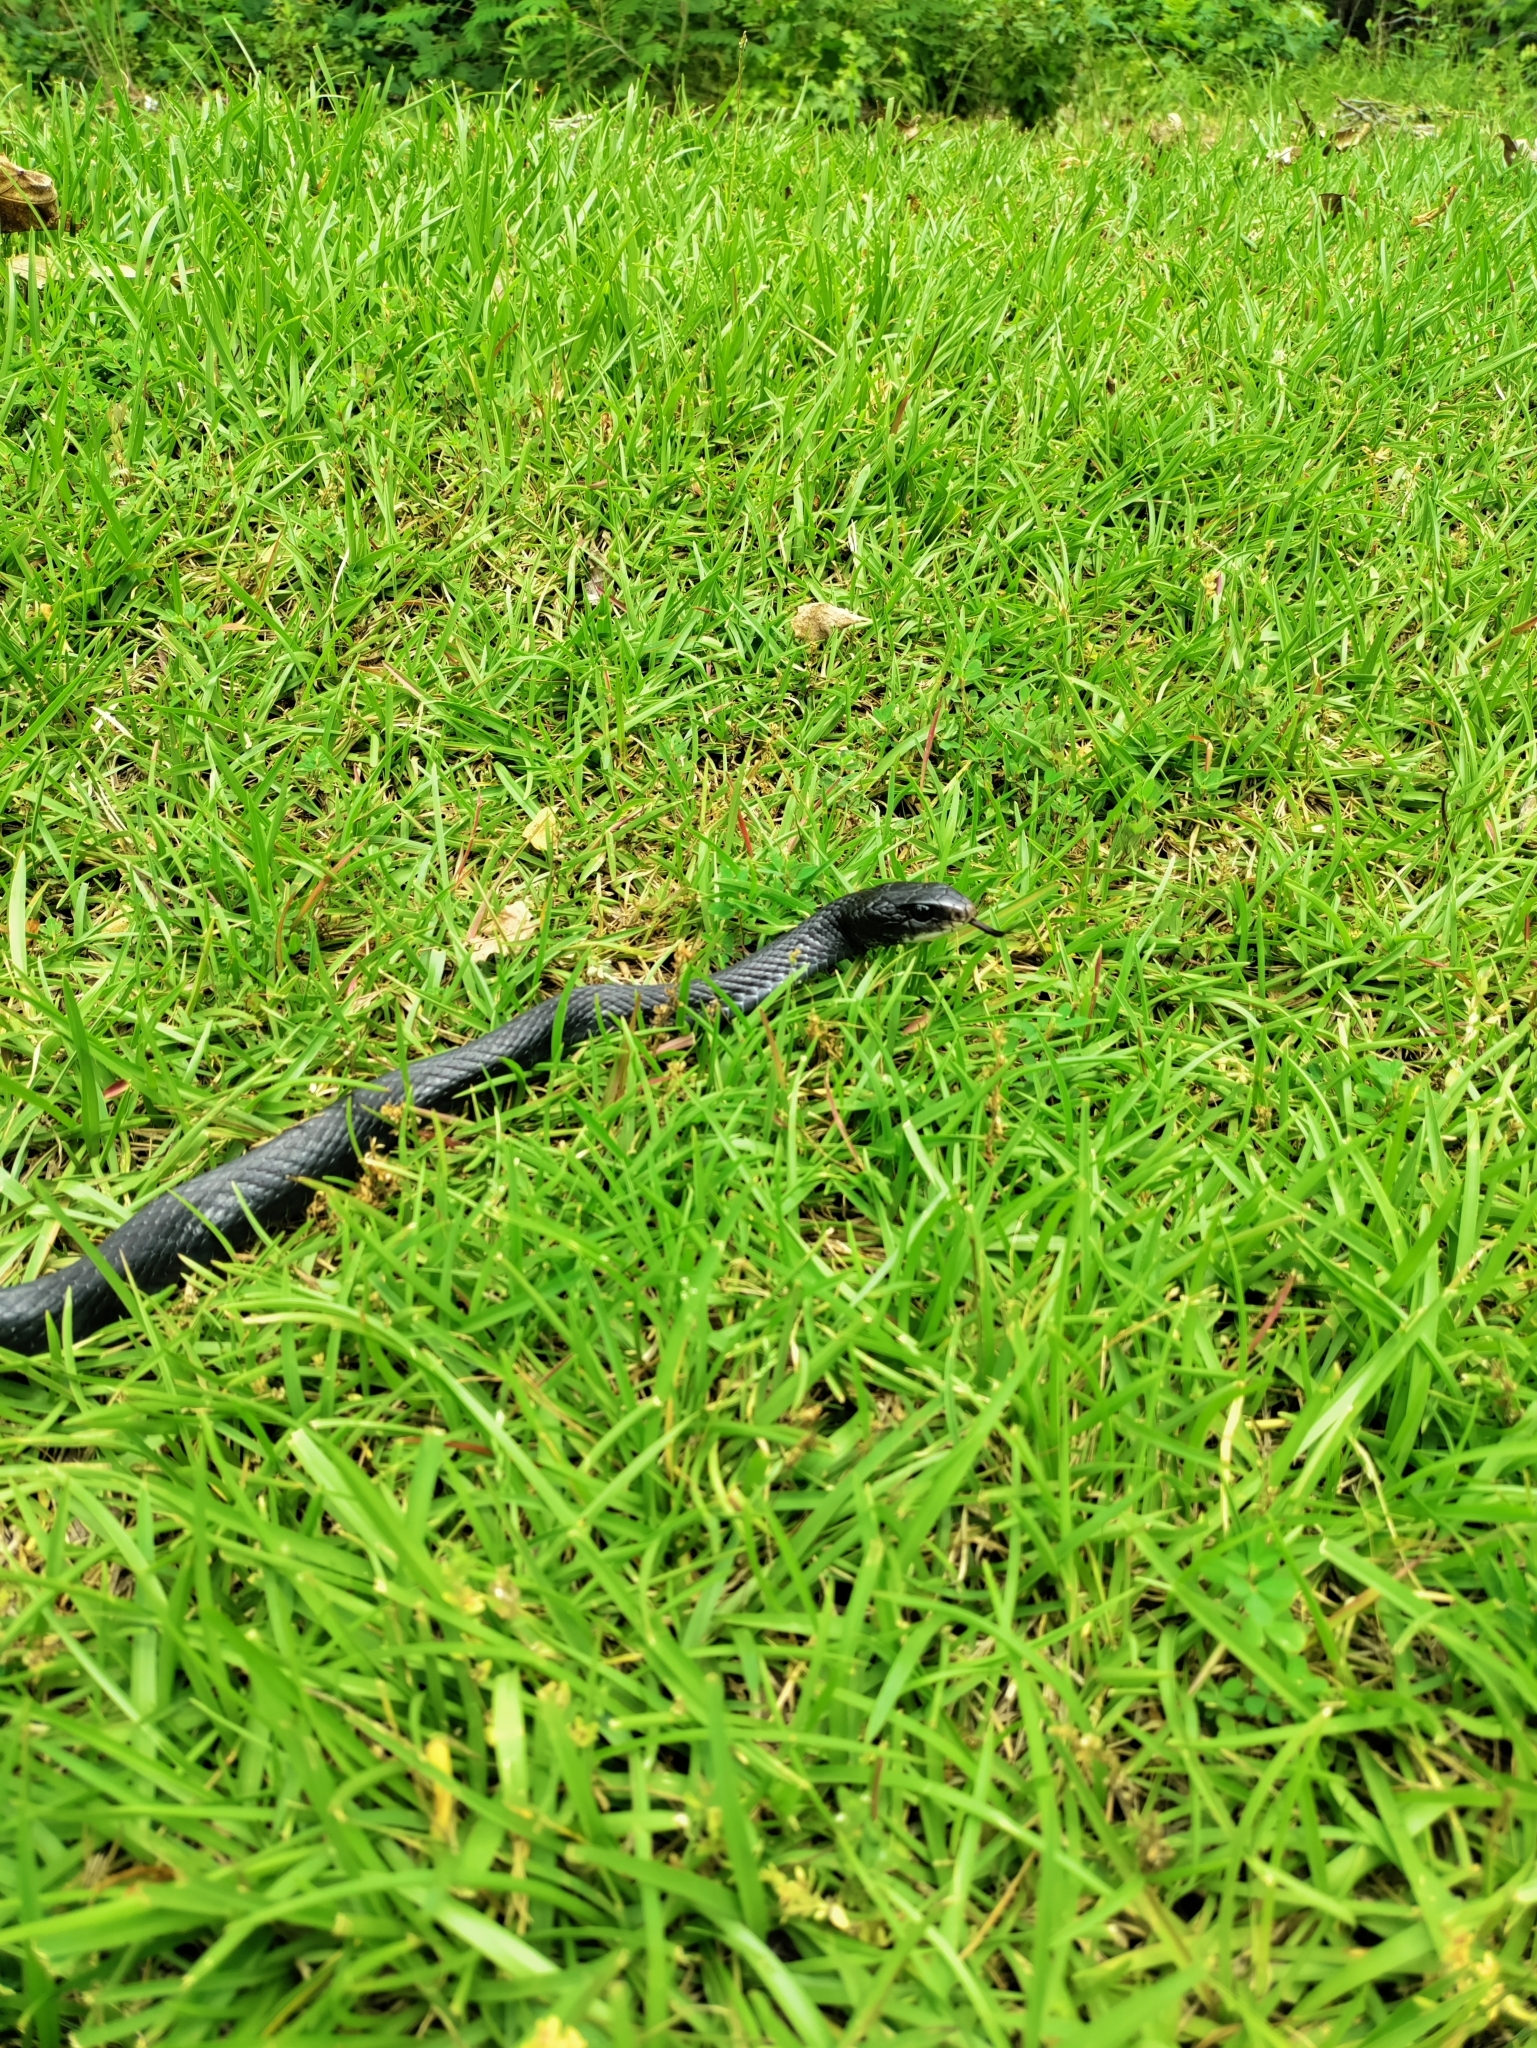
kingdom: Animalia
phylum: Chordata
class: Squamata
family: Colubridae
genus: Coluber
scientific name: Coluber constrictor
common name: Eastern racer
